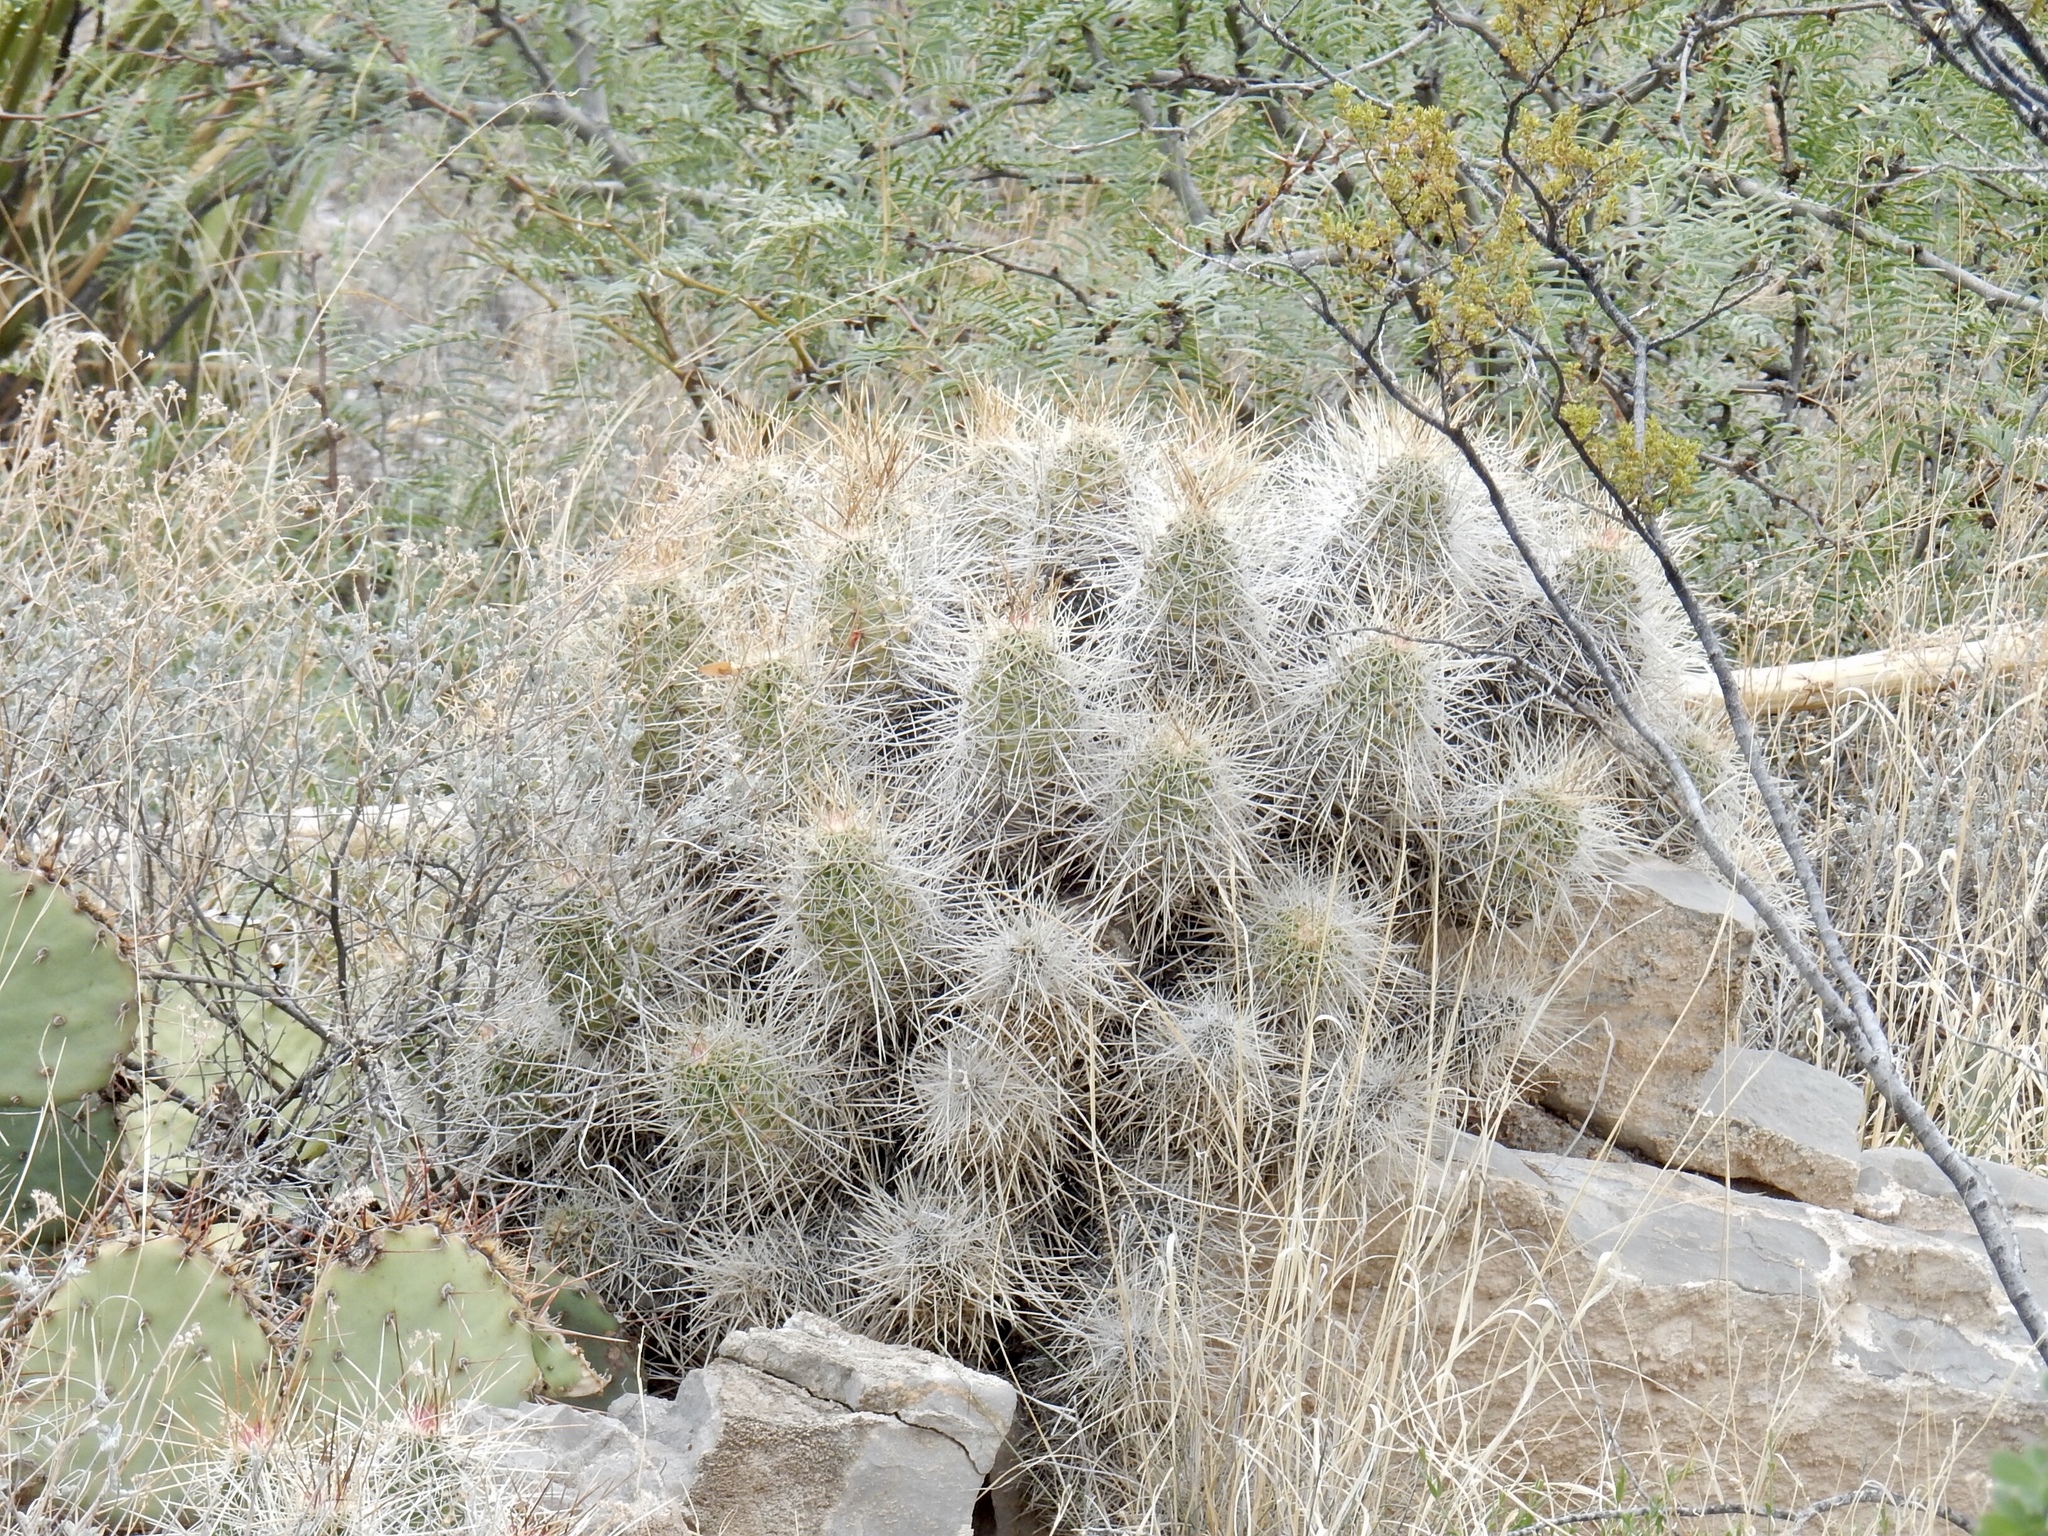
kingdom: Plantae
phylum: Tracheophyta
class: Magnoliopsida
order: Caryophyllales
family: Cactaceae
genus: Echinocereus
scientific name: Echinocereus stramineus
